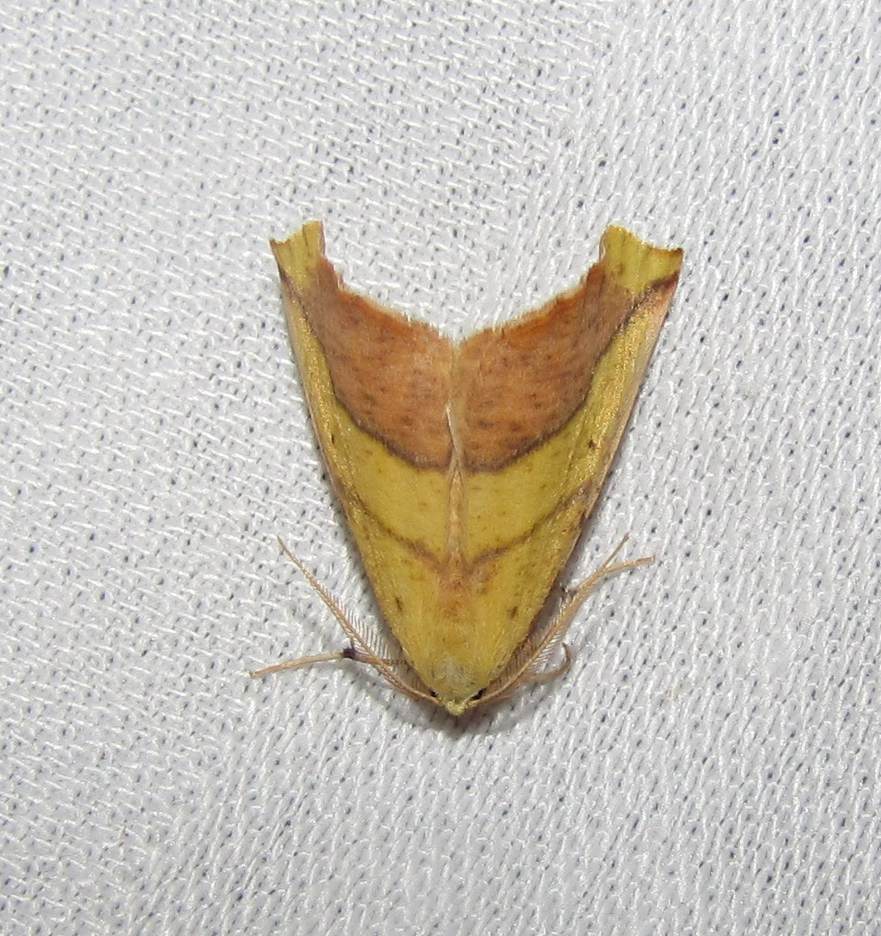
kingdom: Animalia
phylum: Arthropoda
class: Insecta
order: Lepidoptera
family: Geometridae
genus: Sicya
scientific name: Sicya macularia
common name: Sharp-lined yellow
